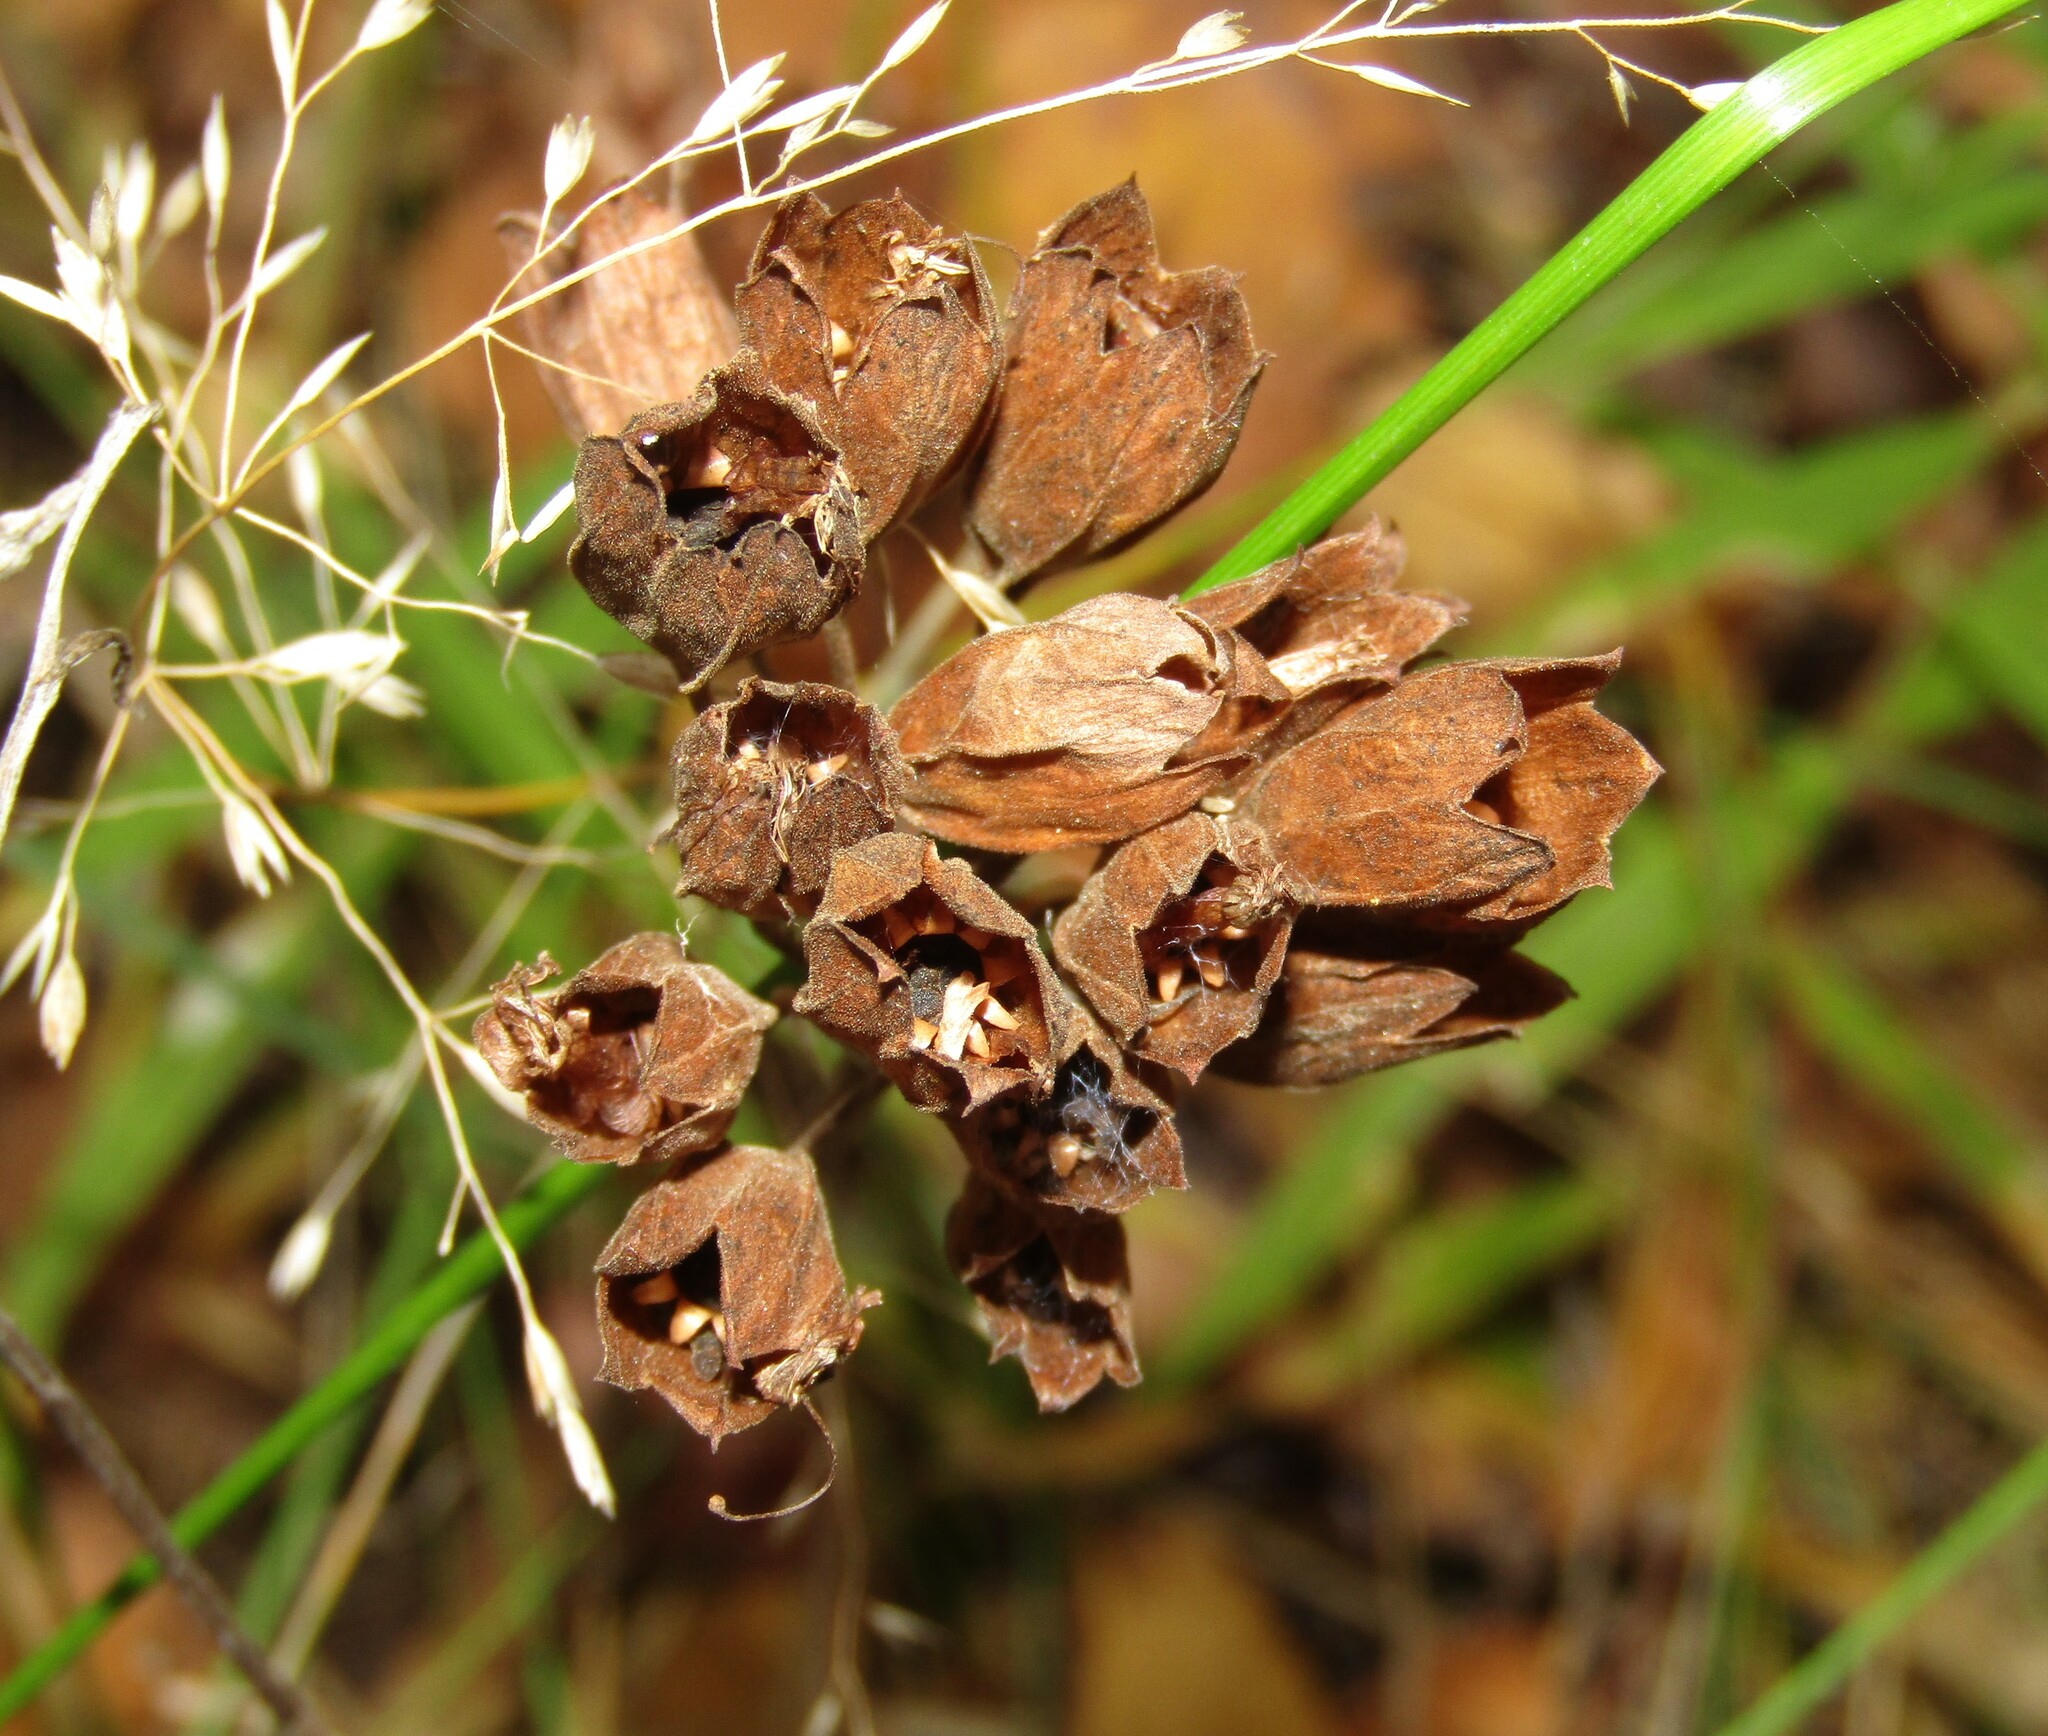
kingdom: Plantae
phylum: Tracheophyta
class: Magnoliopsida
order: Ericales
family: Primulaceae
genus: Primula
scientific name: Primula veris
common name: Cowslip
